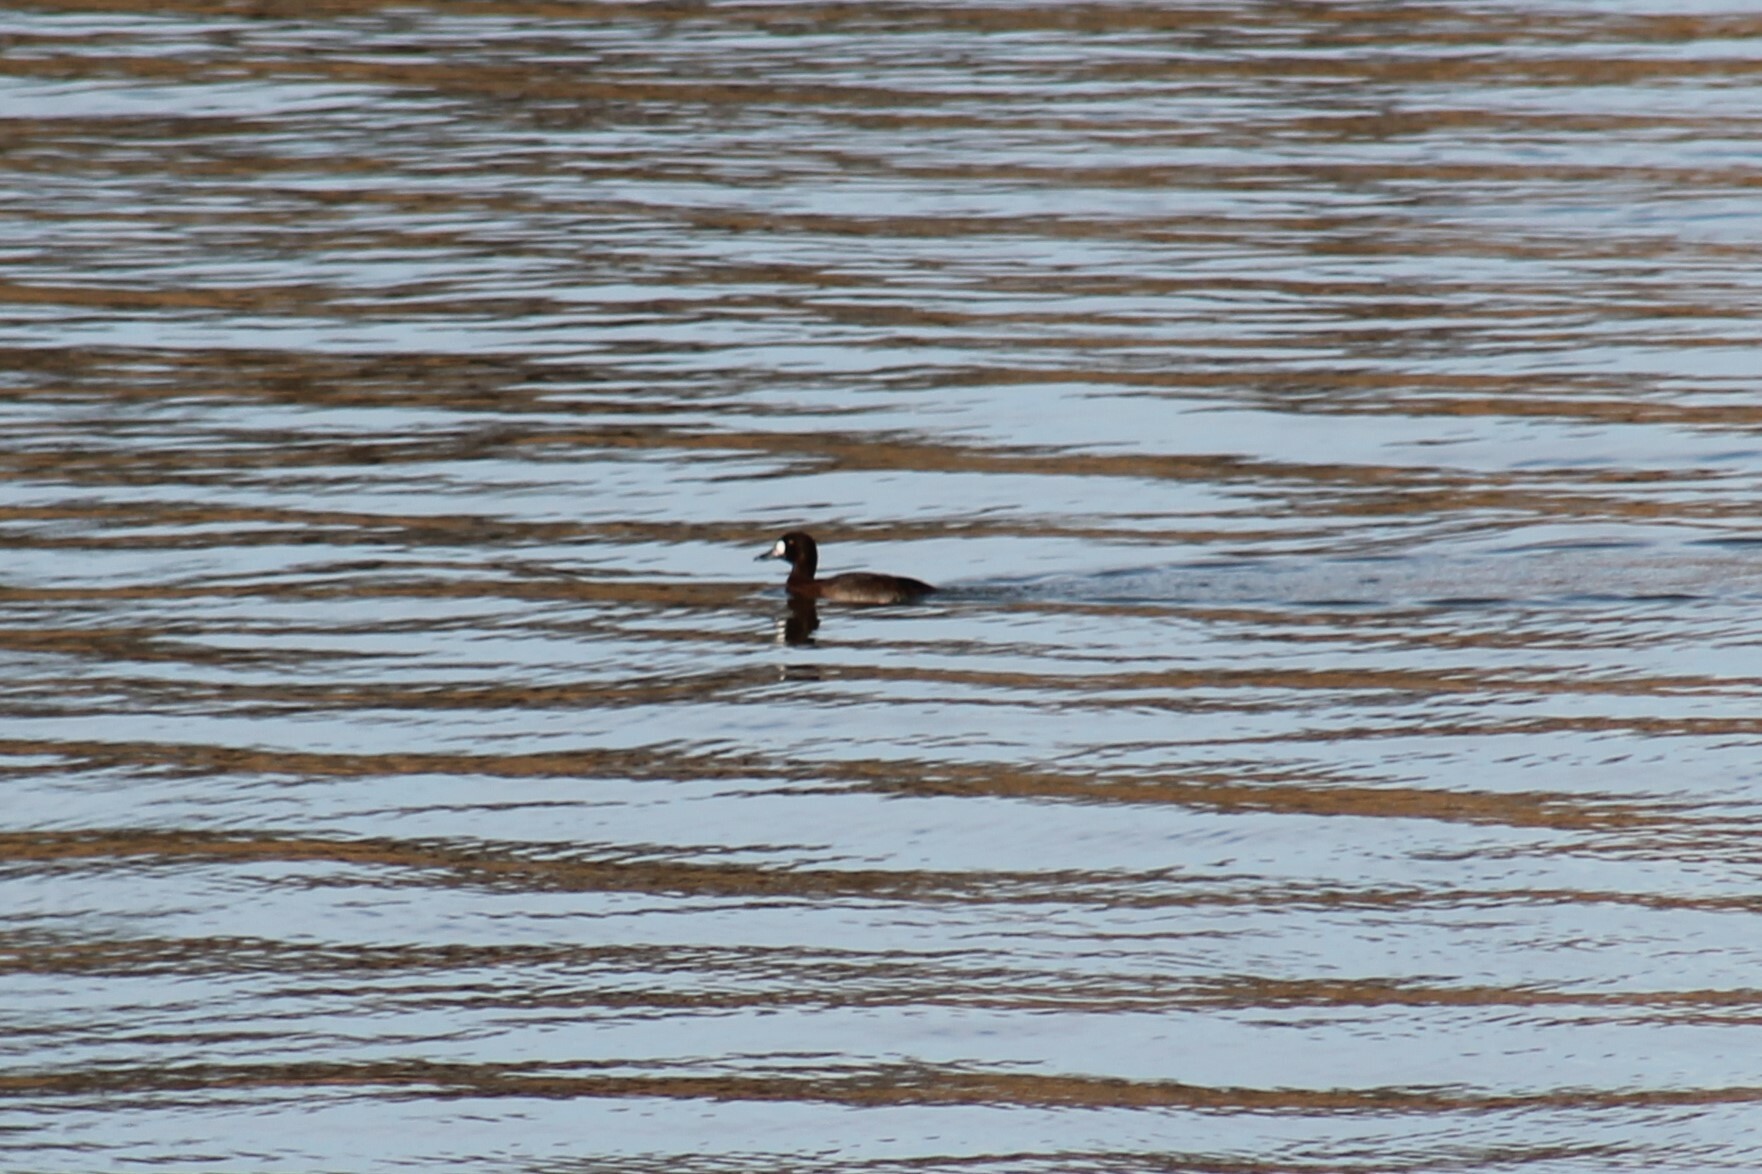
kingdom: Animalia
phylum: Chordata
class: Aves
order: Anseriformes
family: Anatidae
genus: Aythya
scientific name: Aythya marila
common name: Greater scaup
